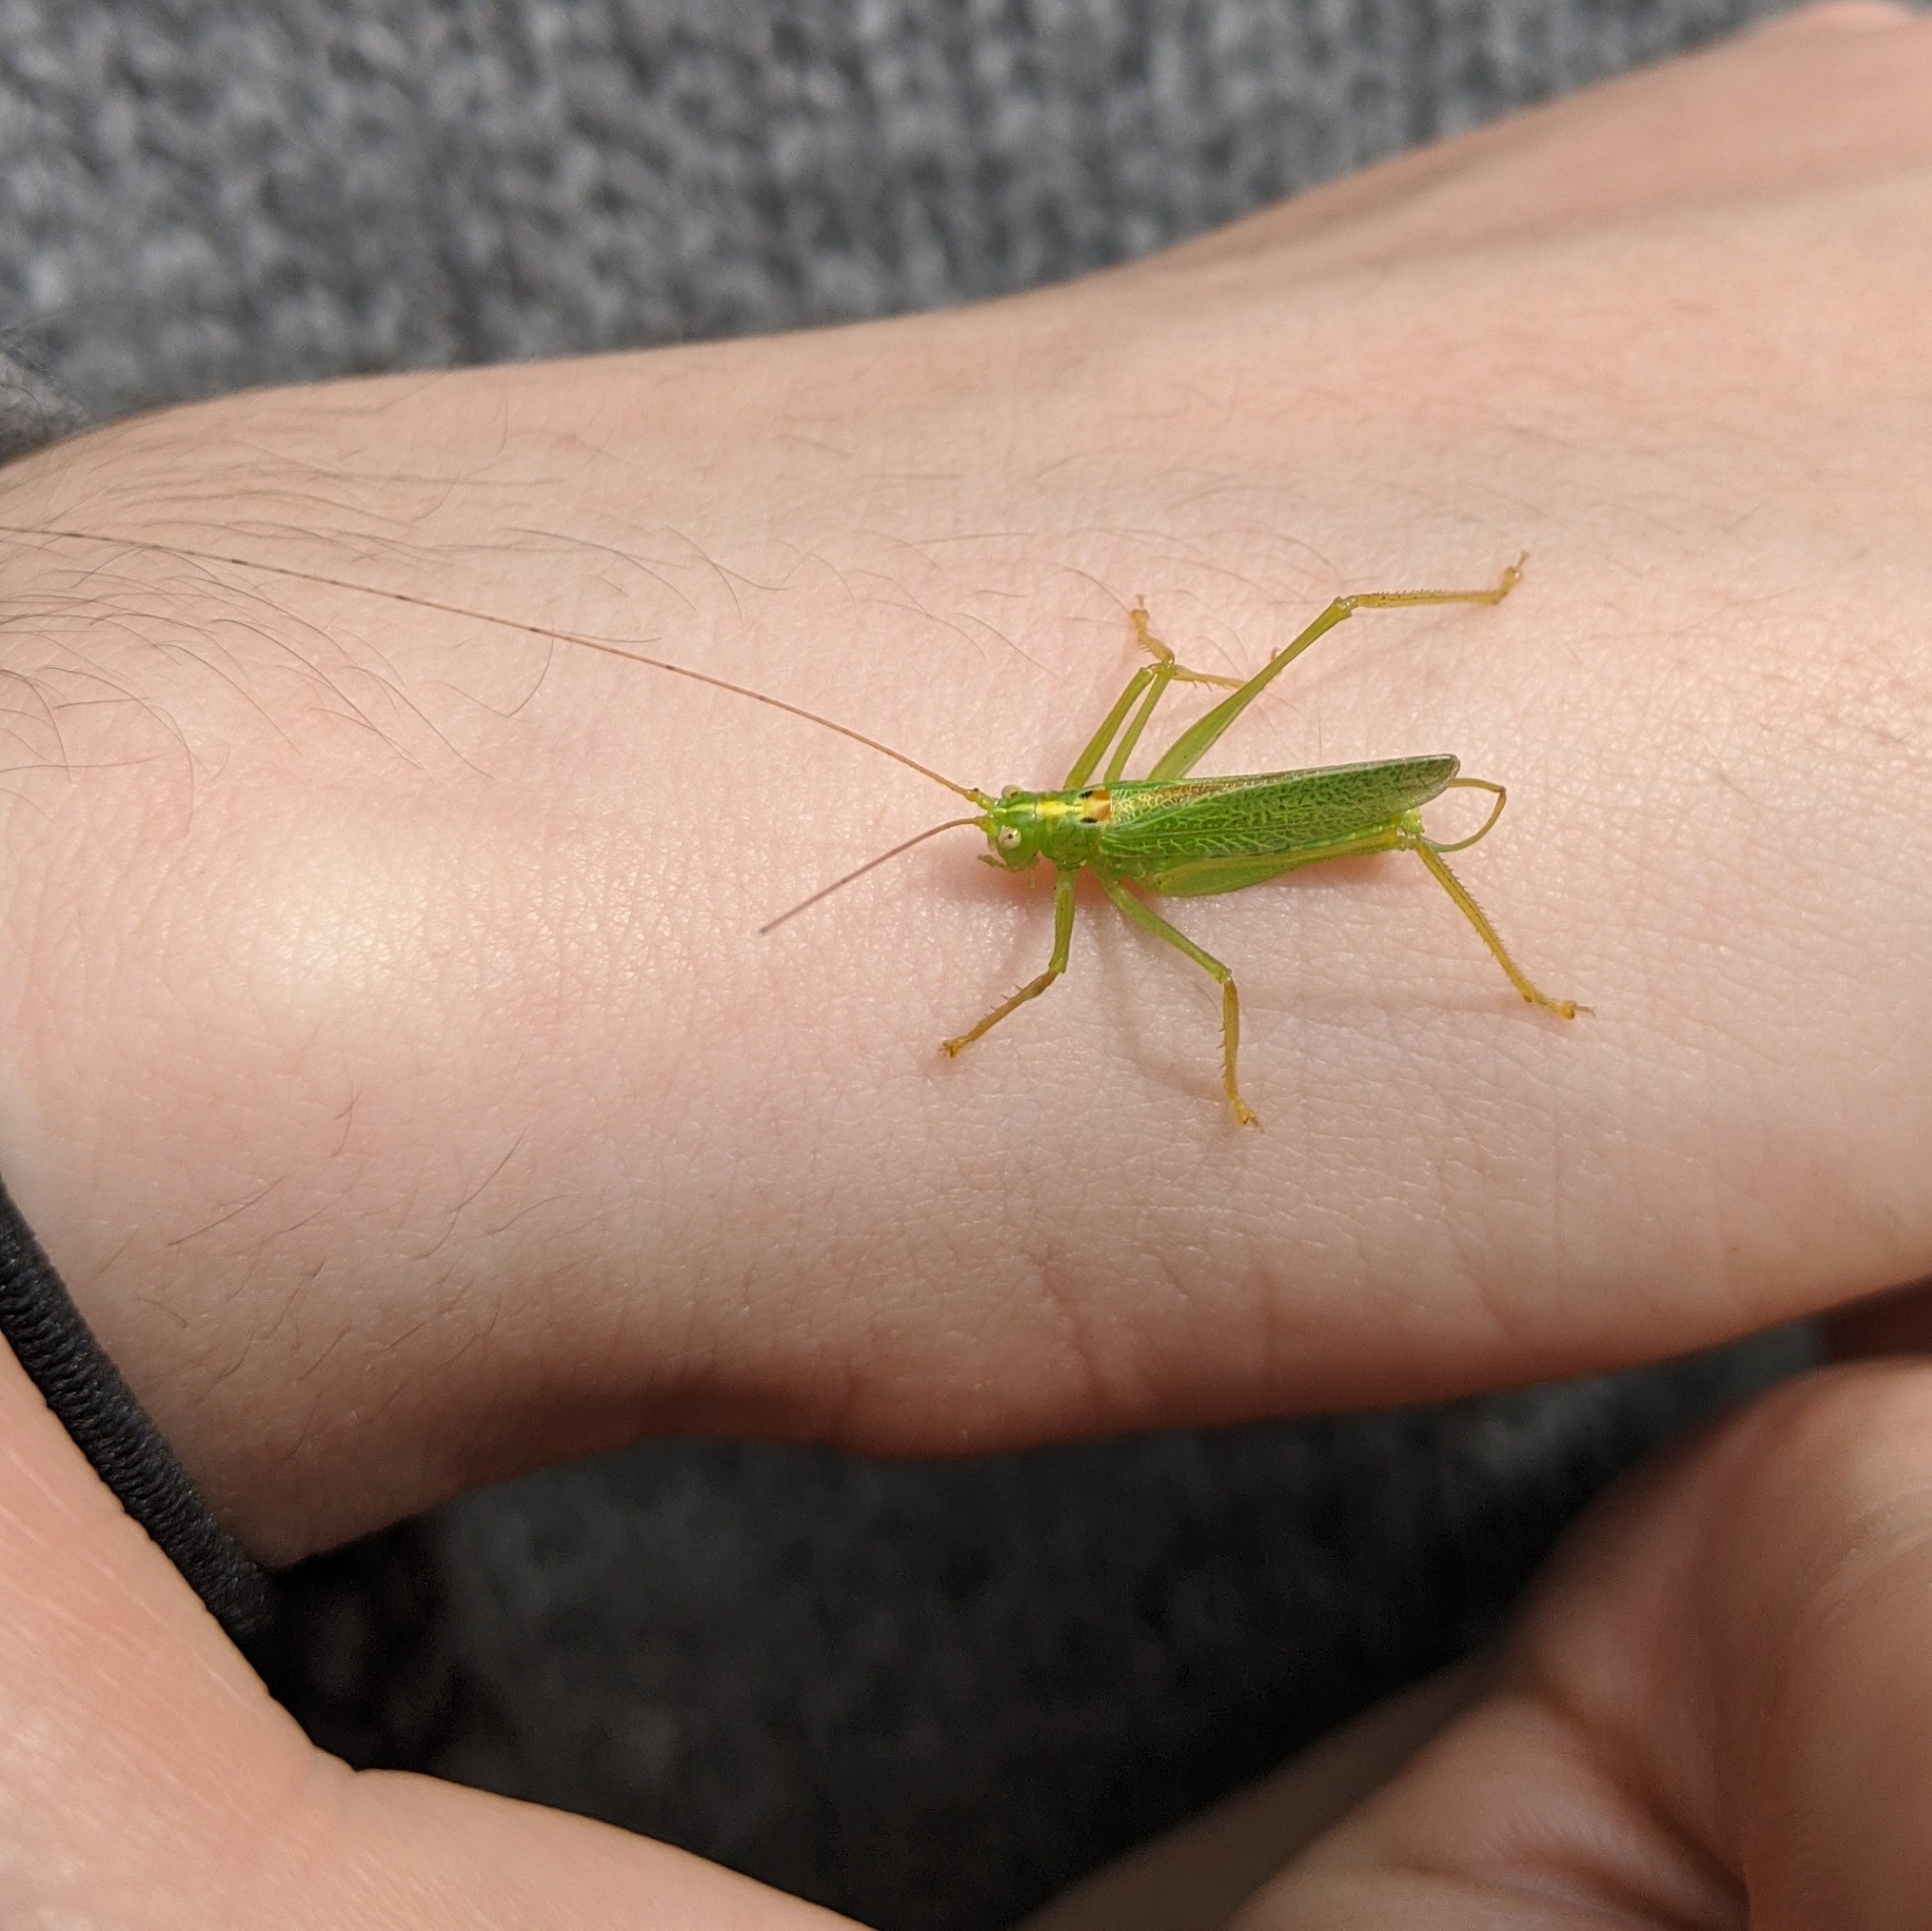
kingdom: Animalia
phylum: Arthropoda
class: Insecta
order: Orthoptera
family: Tettigoniidae
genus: Meconema
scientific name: Meconema thalassinum
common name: Oak bush-cricket
